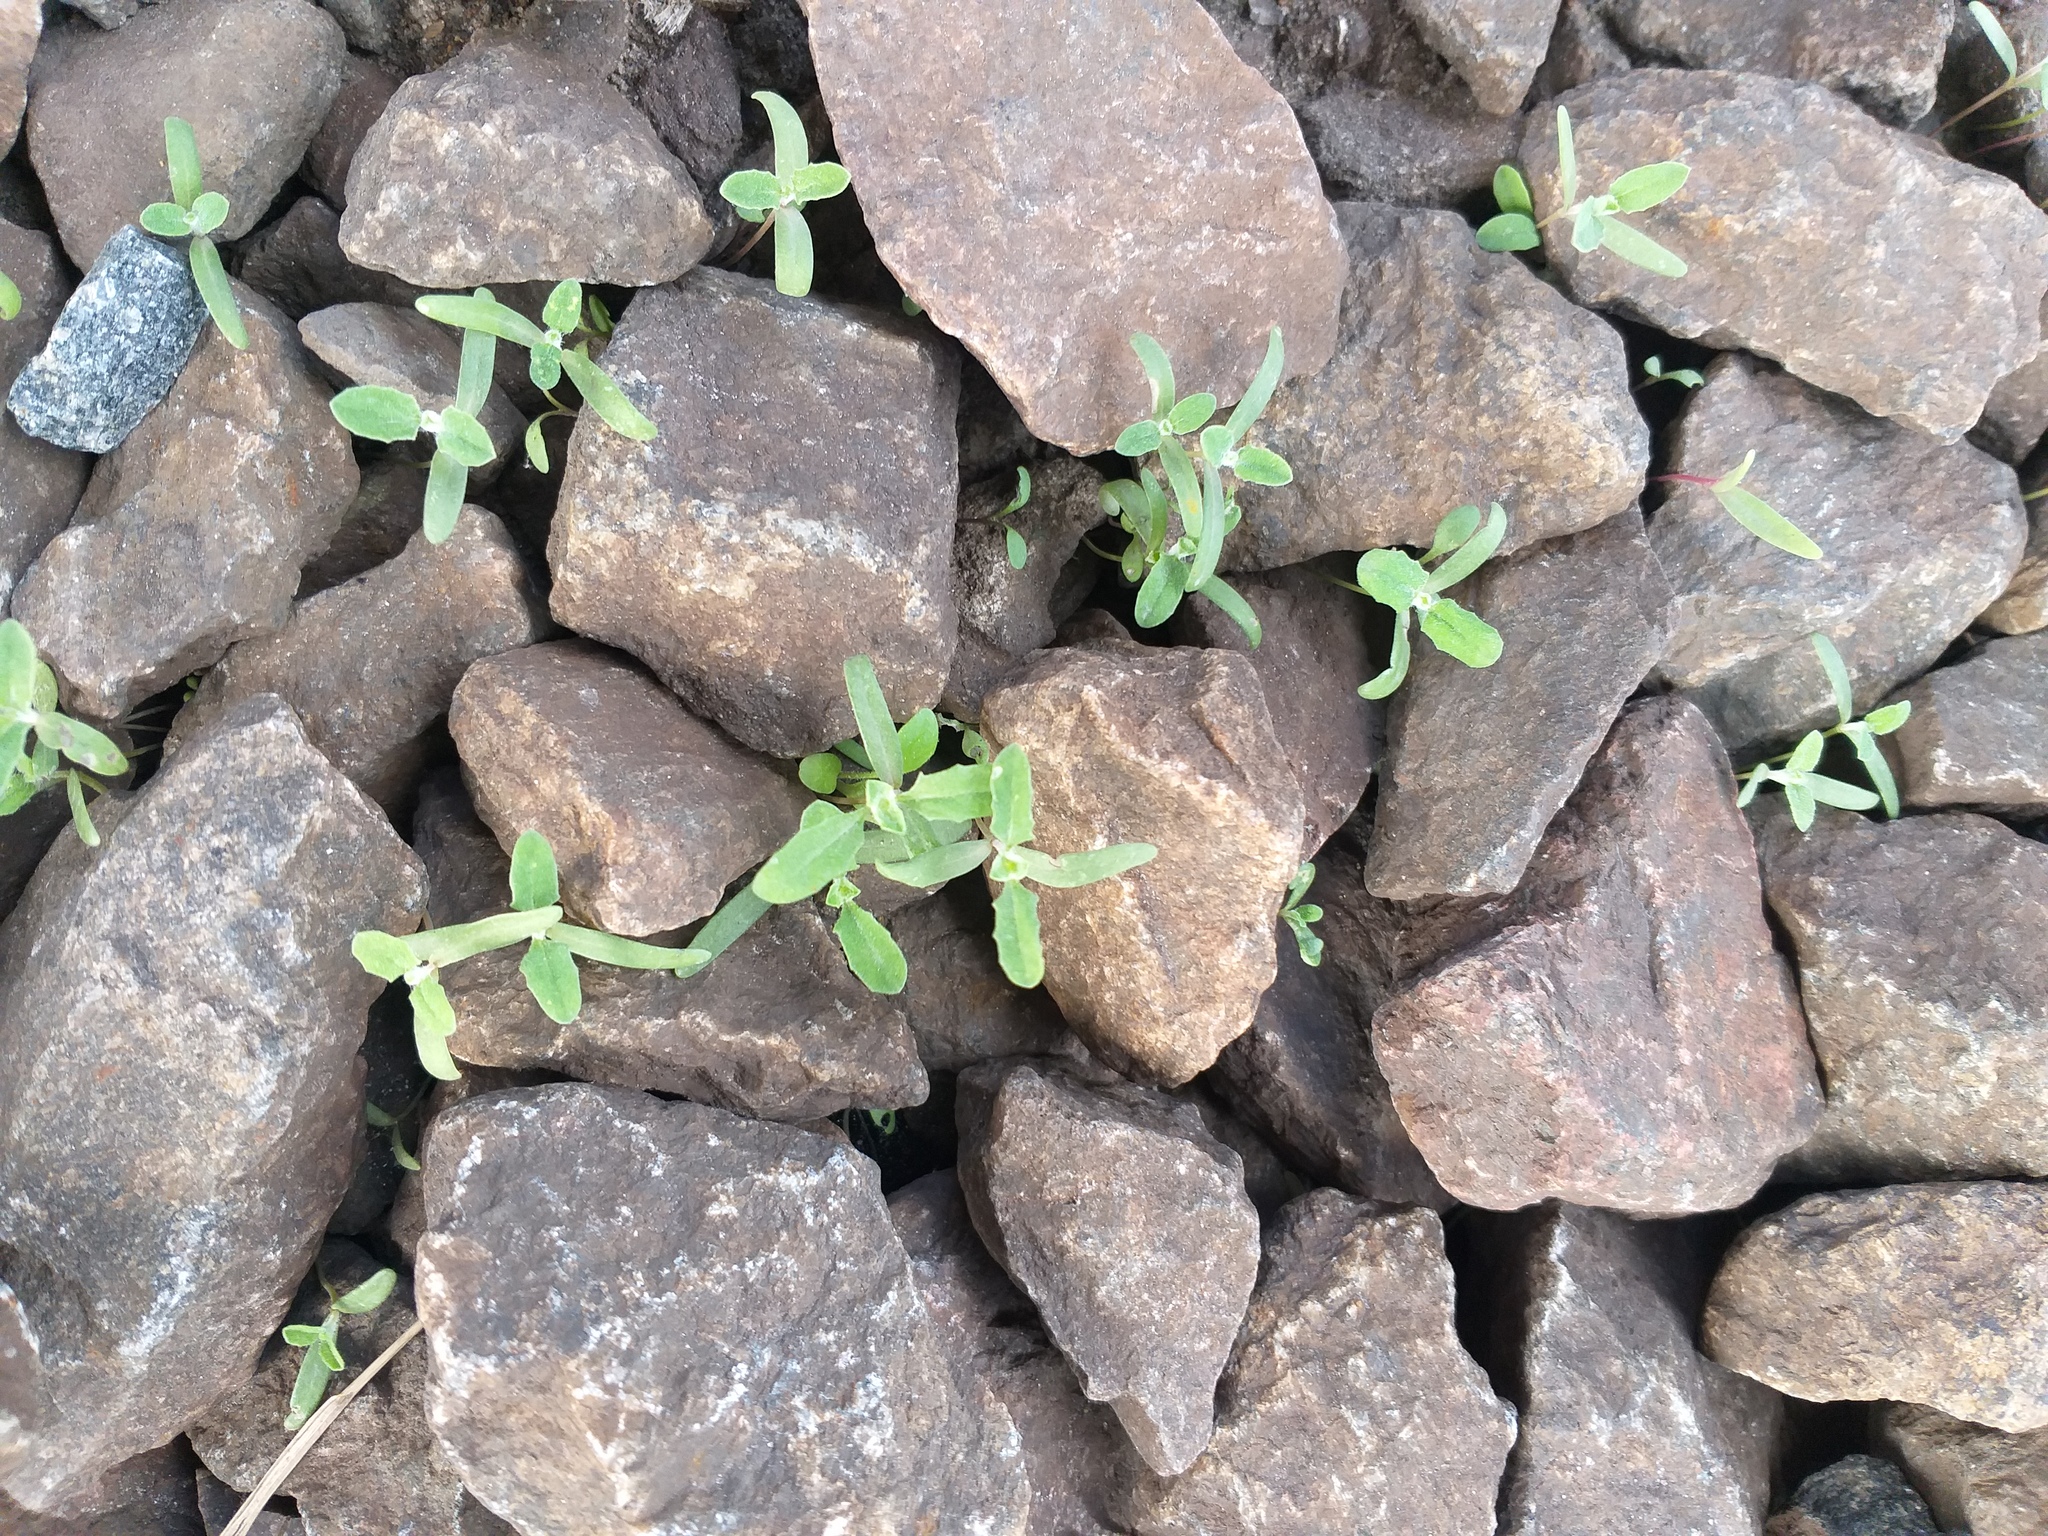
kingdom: Plantae
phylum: Tracheophyta
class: Magnoliopsida
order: Caryophyllales
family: Amaranthaceae
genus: Atriplex
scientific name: Atriplex tatarica
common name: Tatarian orache
